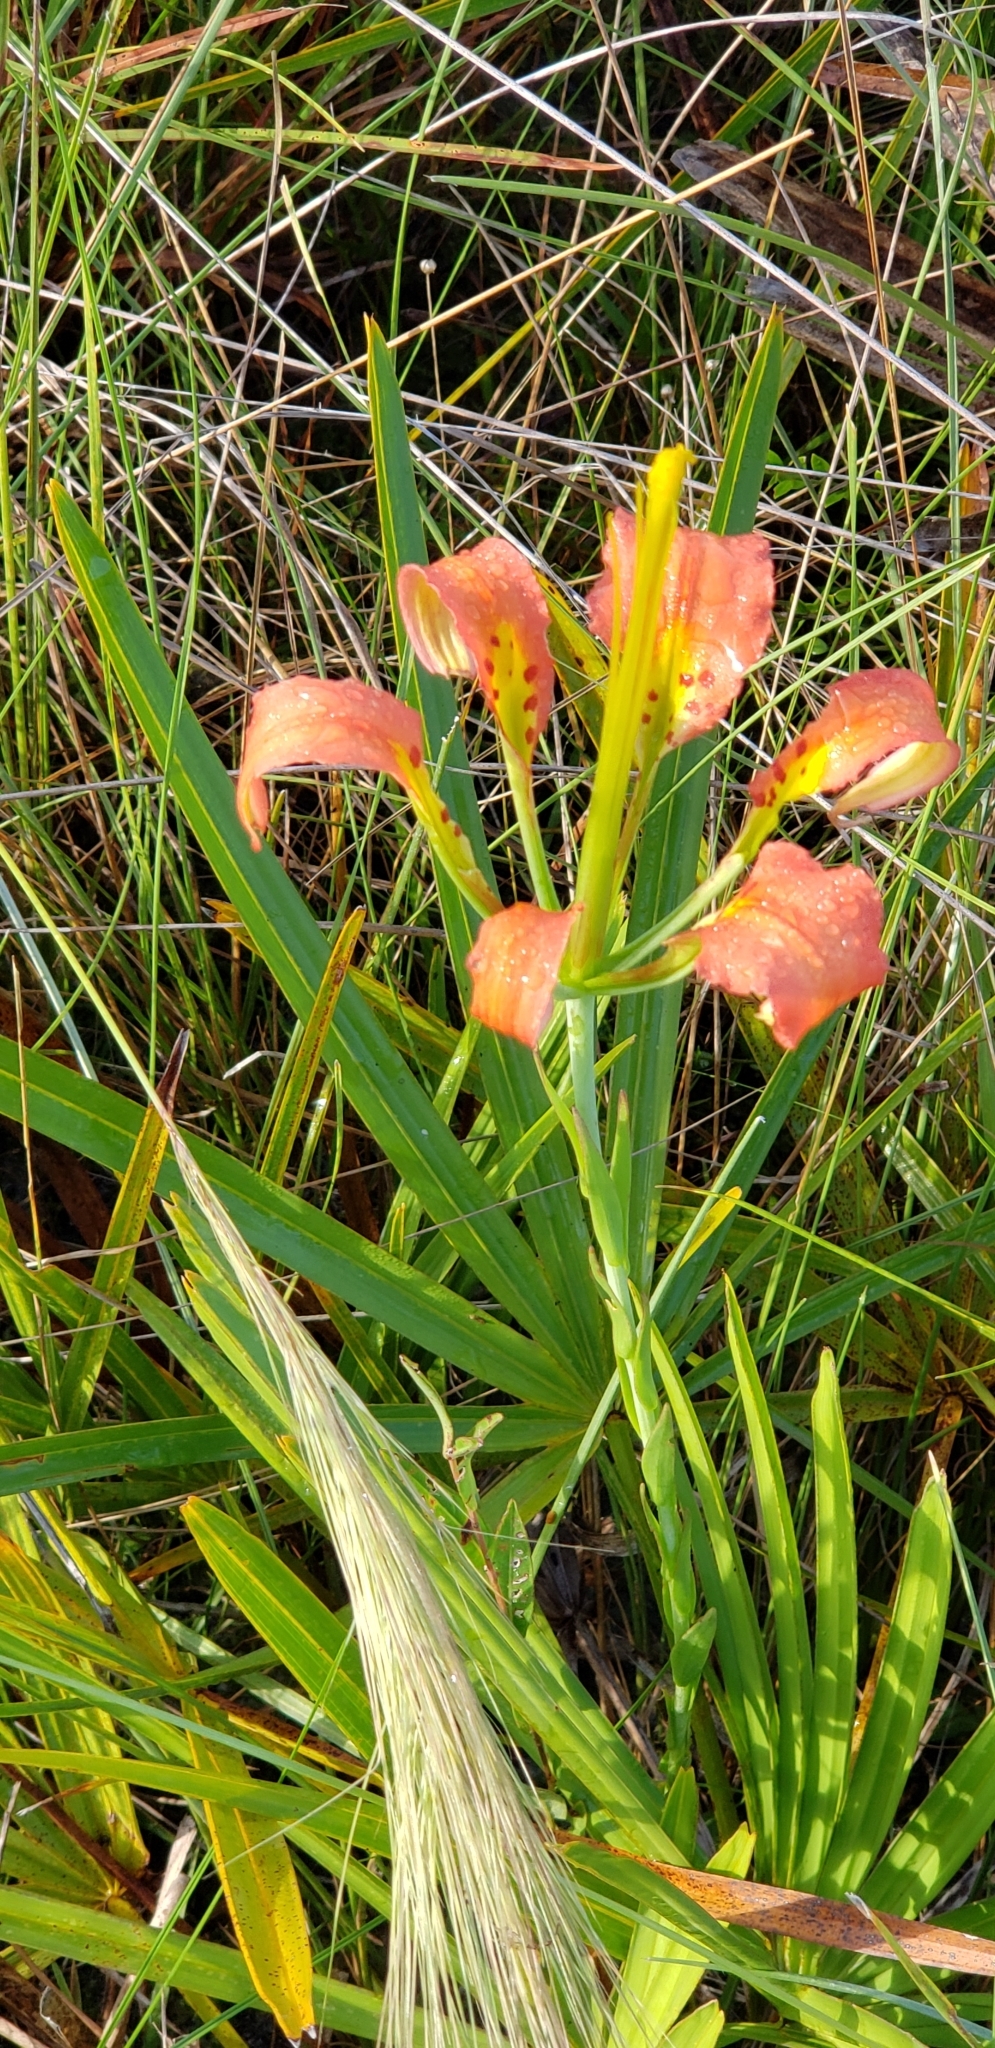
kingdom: Plantae
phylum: Tracheophyta
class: Liliopsida
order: Liliales
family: Liliaceae
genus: Lilium
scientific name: Lilium catesbaei
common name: Catesby's lily
